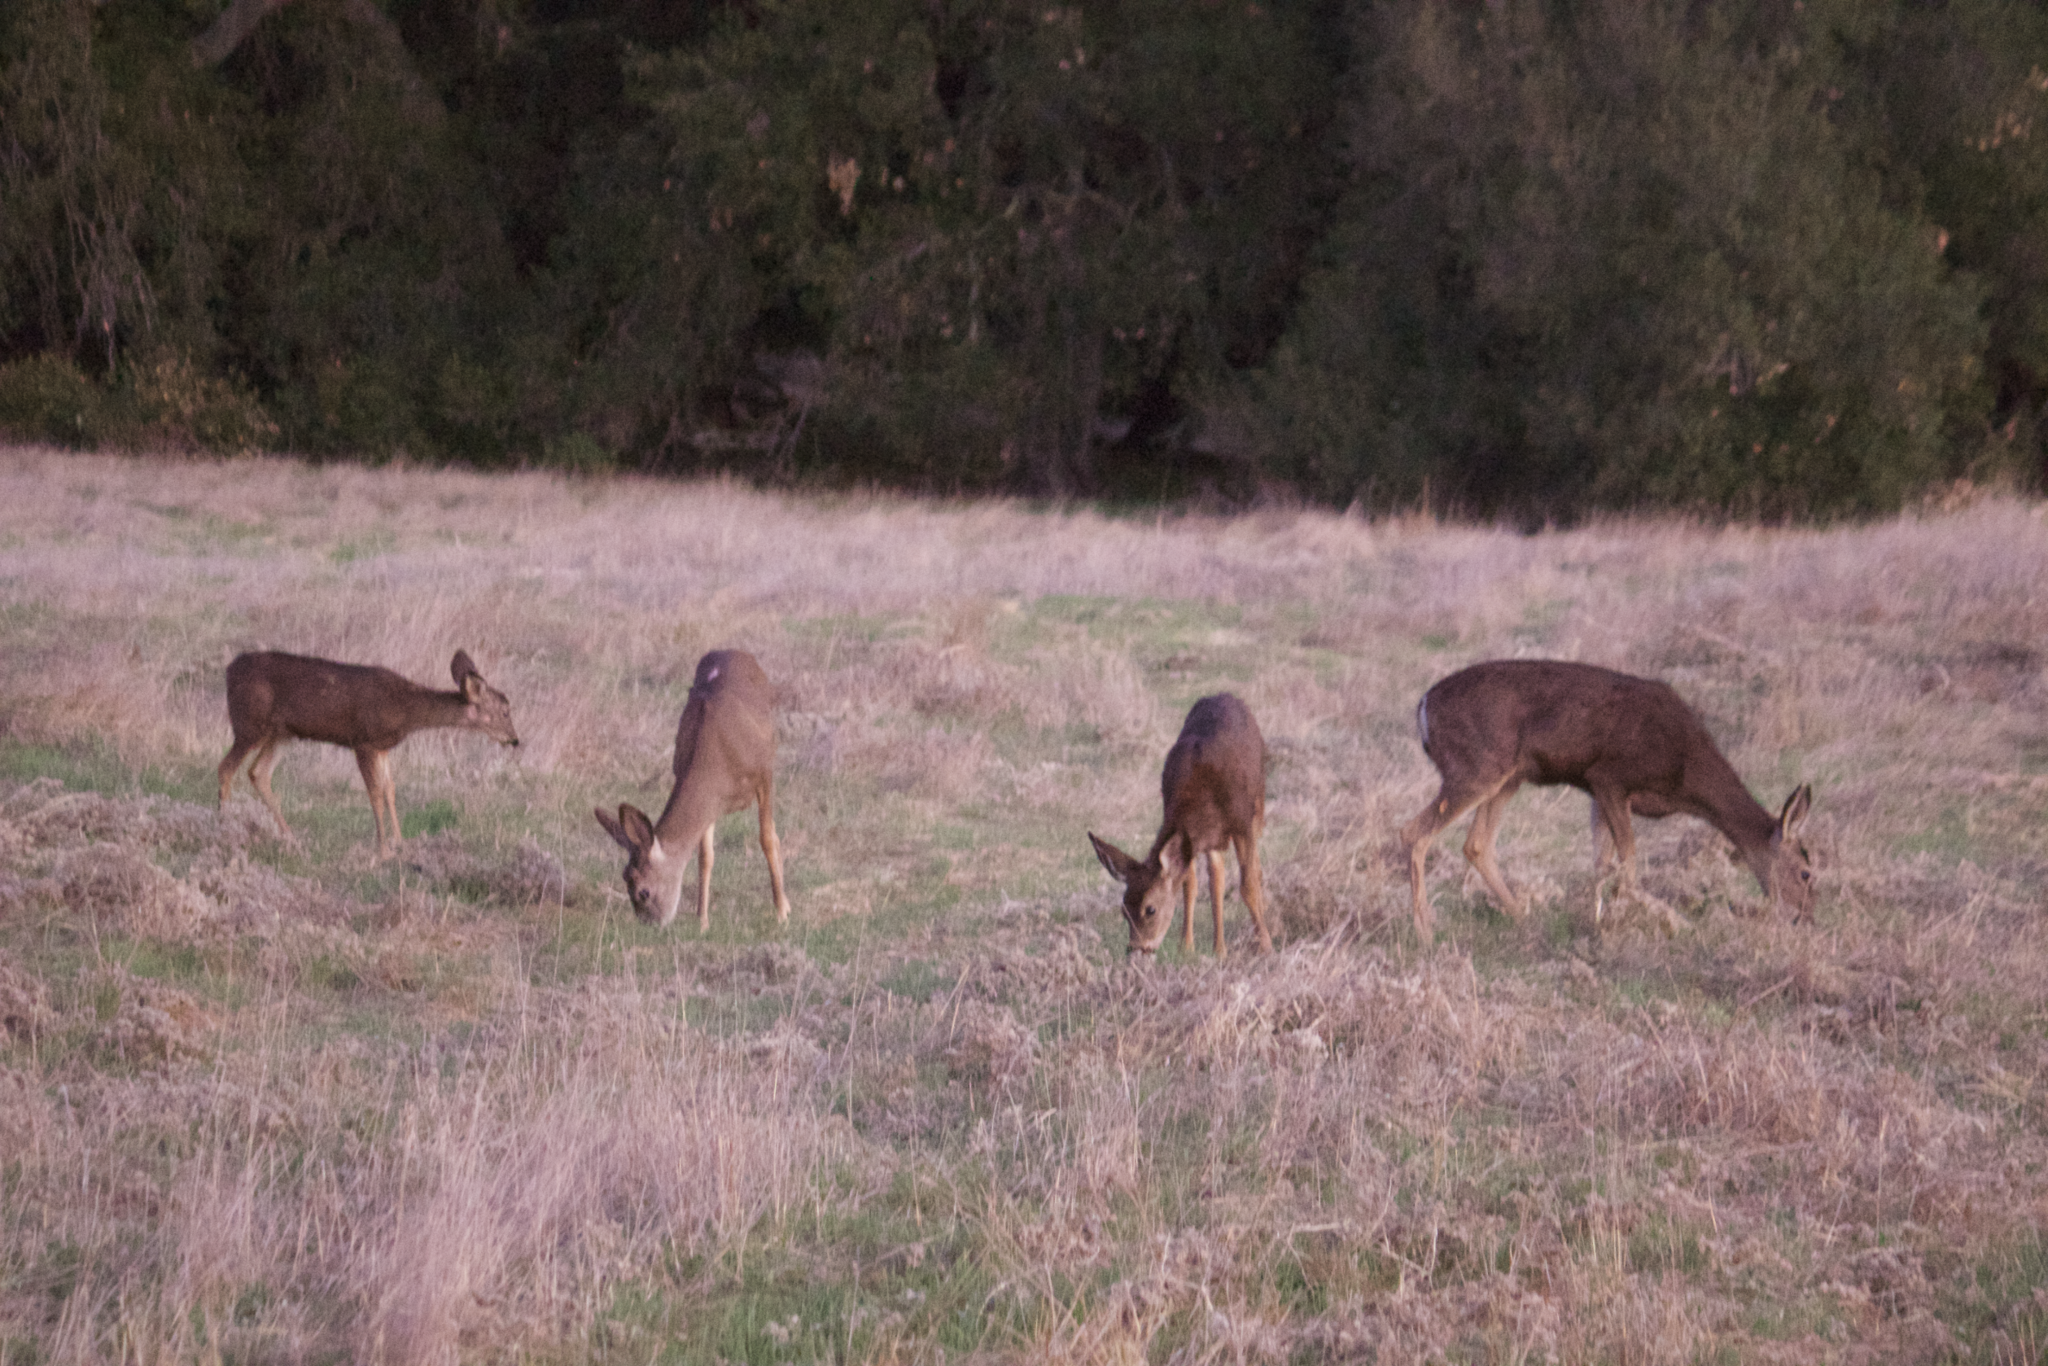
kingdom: Animalia
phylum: Chordata
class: Mammalia
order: Artiodactyla
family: Cervidae
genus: Odocoileus
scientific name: Odocoileus hemionus
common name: Mule deer
